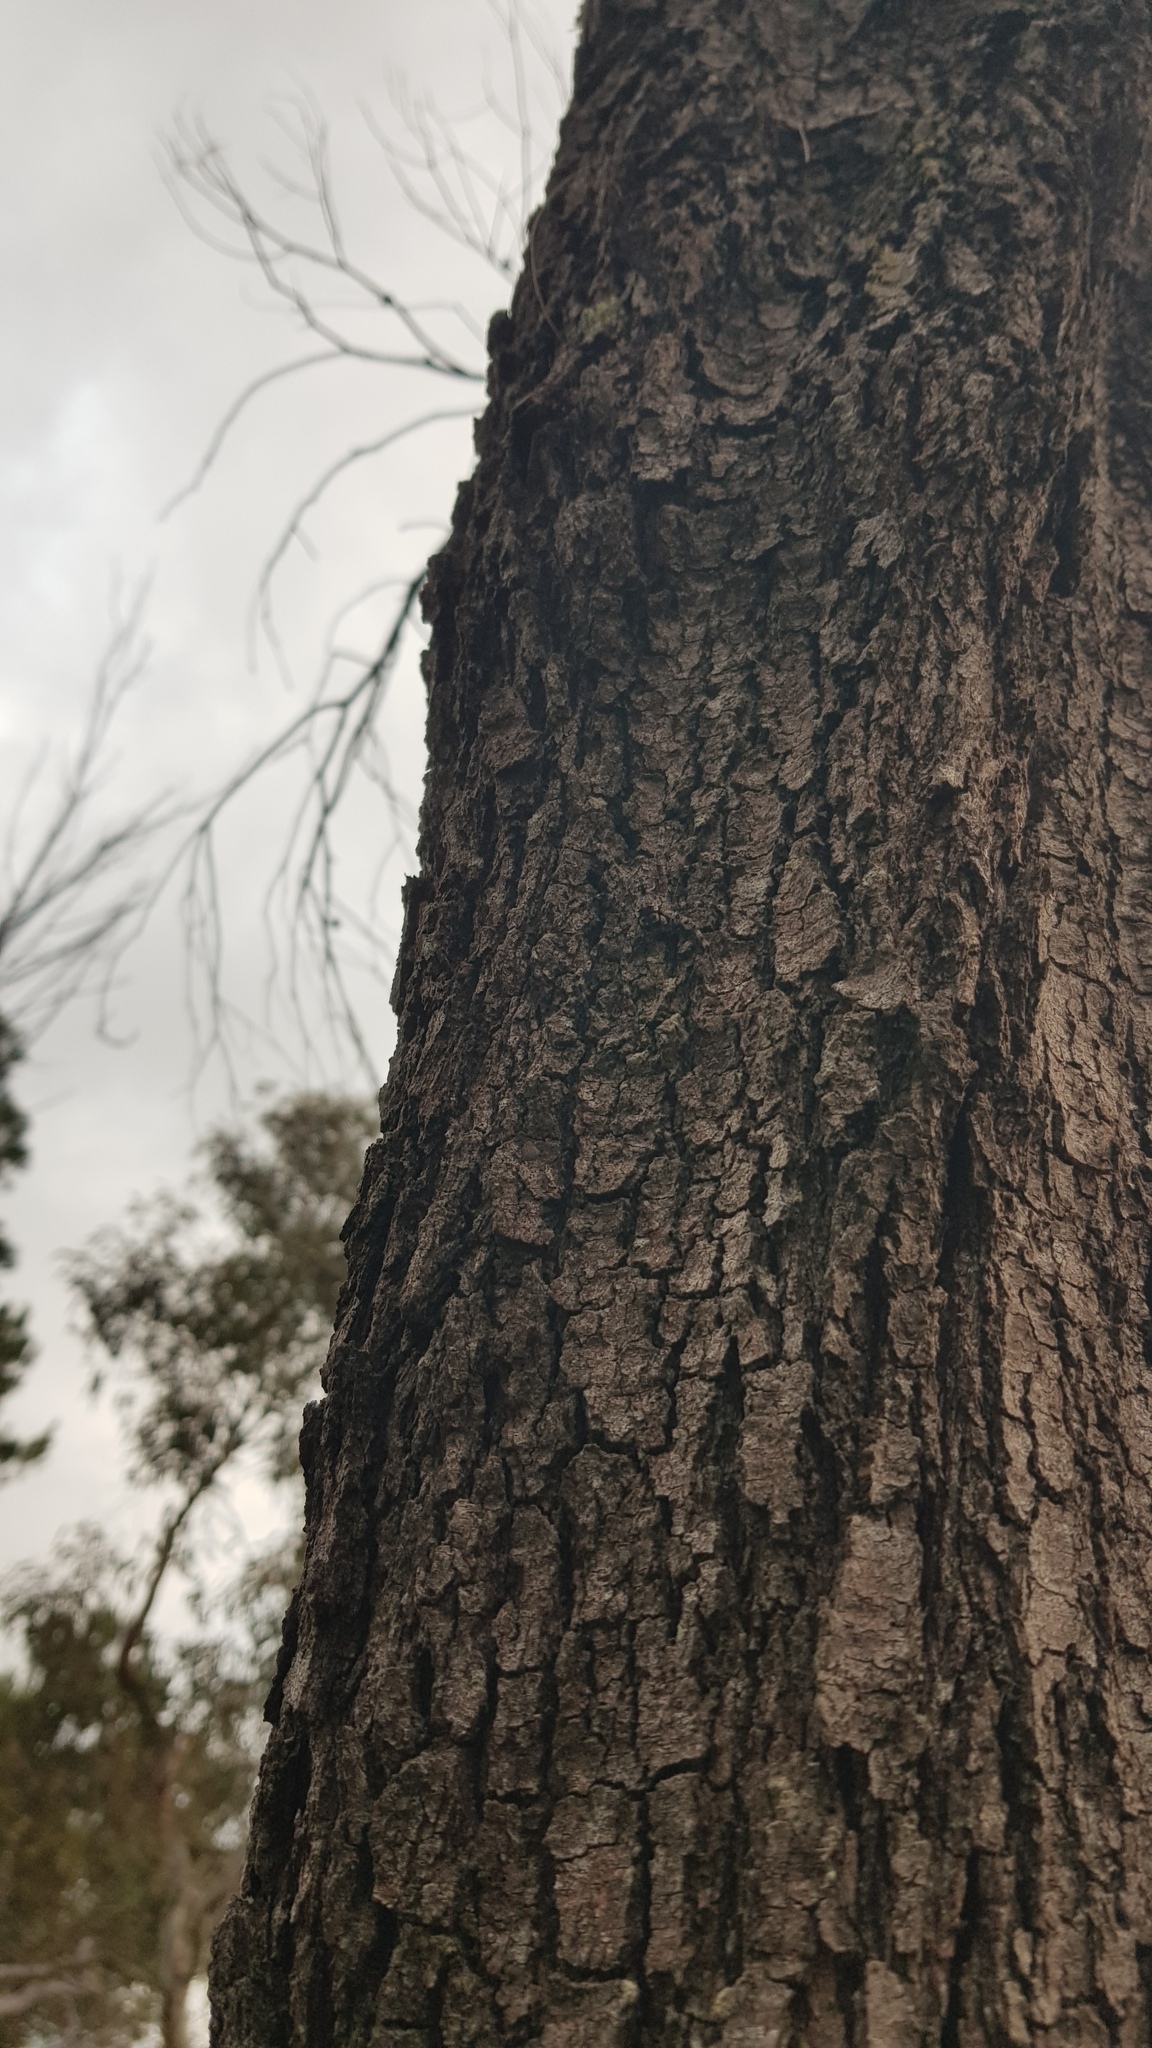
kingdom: Animalia
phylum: Arthropoda
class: Arachnida
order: Araneae
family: Sparassidae
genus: Pediana
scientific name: Pediana regina
